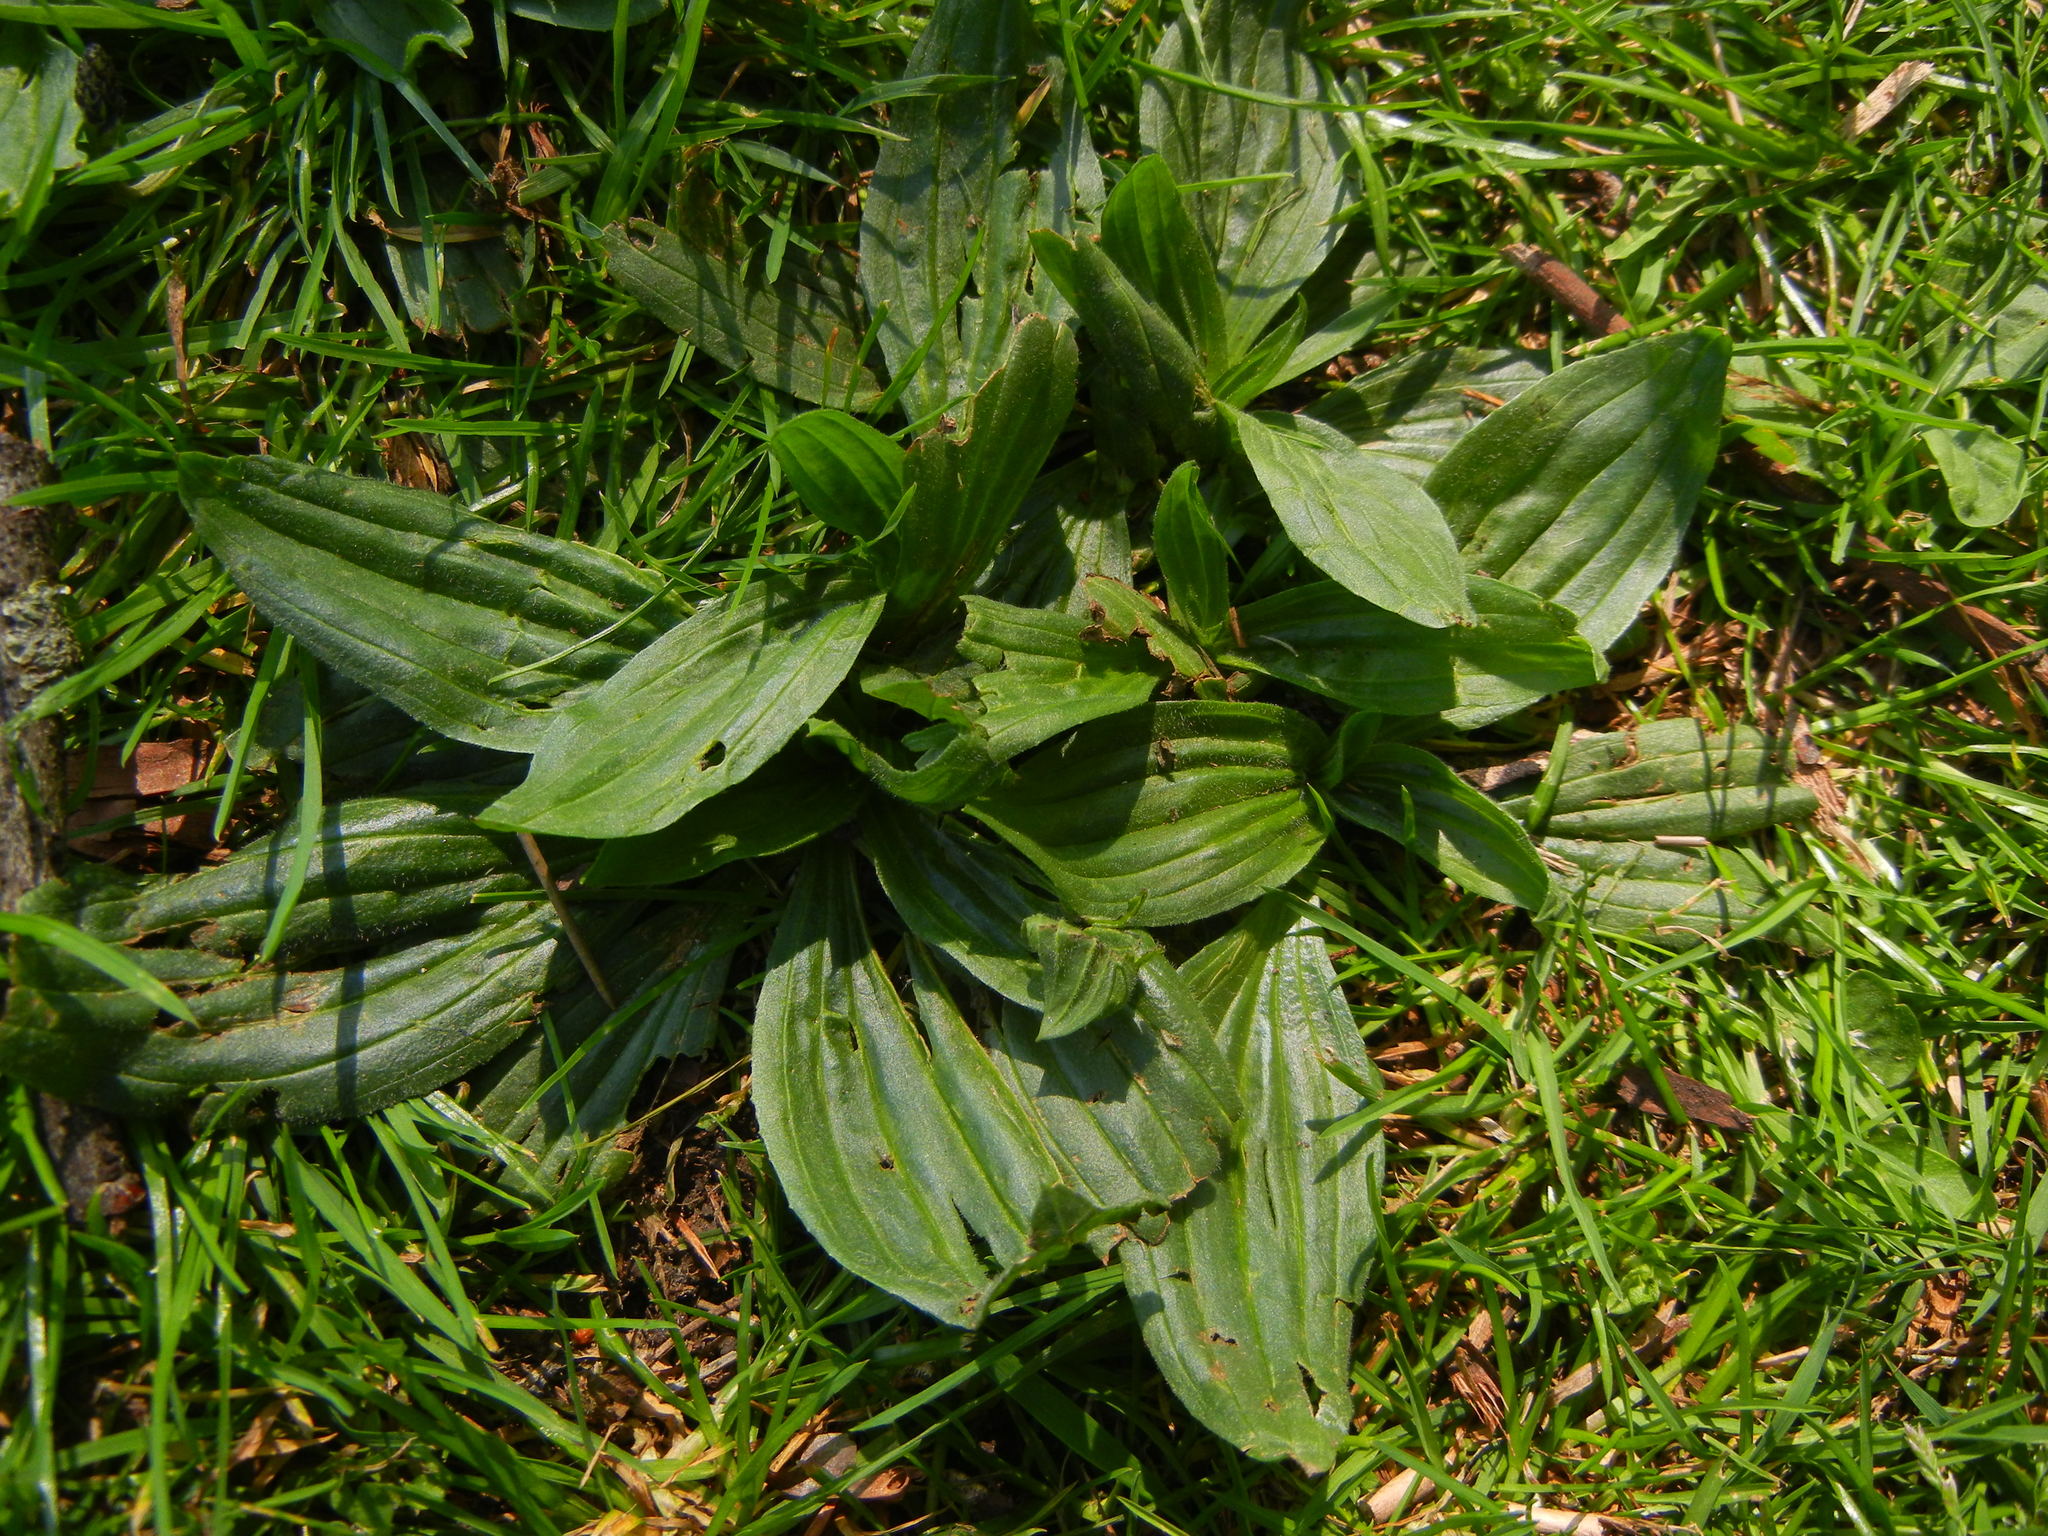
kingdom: Plantae
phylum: Tracheophyta
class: Magnoliopsida
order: Lamiales
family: Plantaginaceae
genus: Plantago
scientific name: Plantago major
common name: Common plantain
